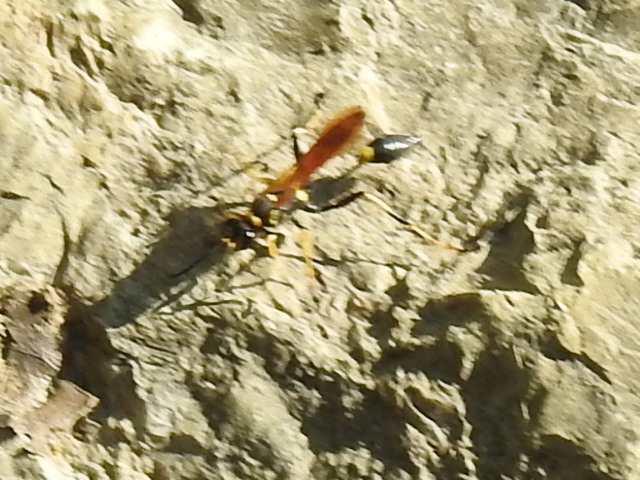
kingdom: Animalia
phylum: Arthropoda
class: Insecta
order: Hymenoptera
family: Sphecidae
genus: Sceliphron
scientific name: Sceliphron caementarium
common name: Mud dauber
